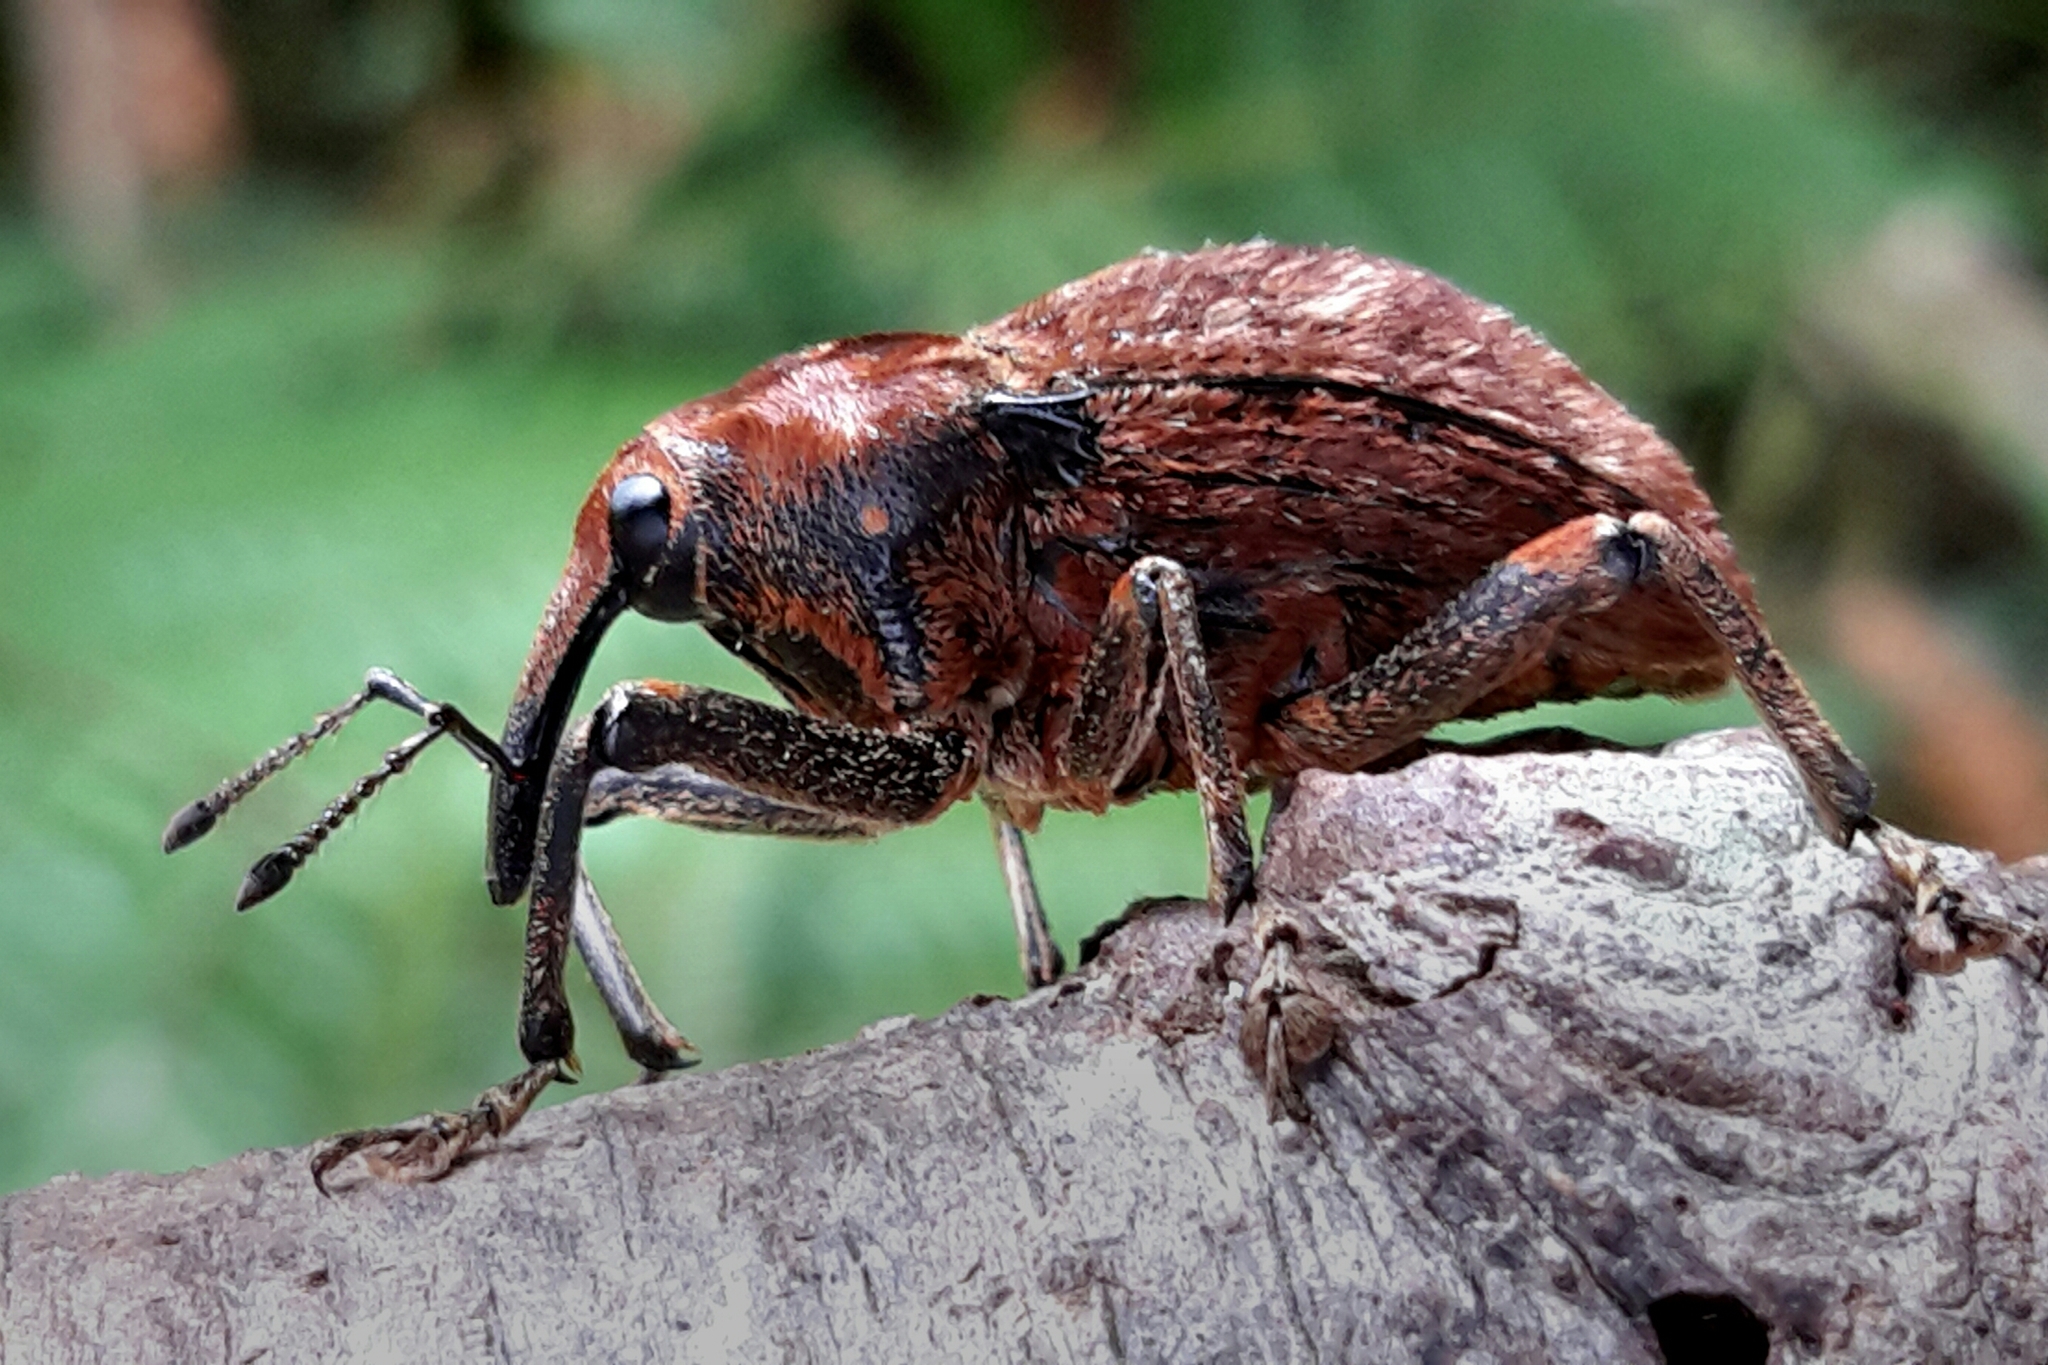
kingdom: Animalia
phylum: Arthropoda
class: Insecta
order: Coleoptera
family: Curculionidae
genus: Rhynchodes
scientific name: Rhynchodes ursus
